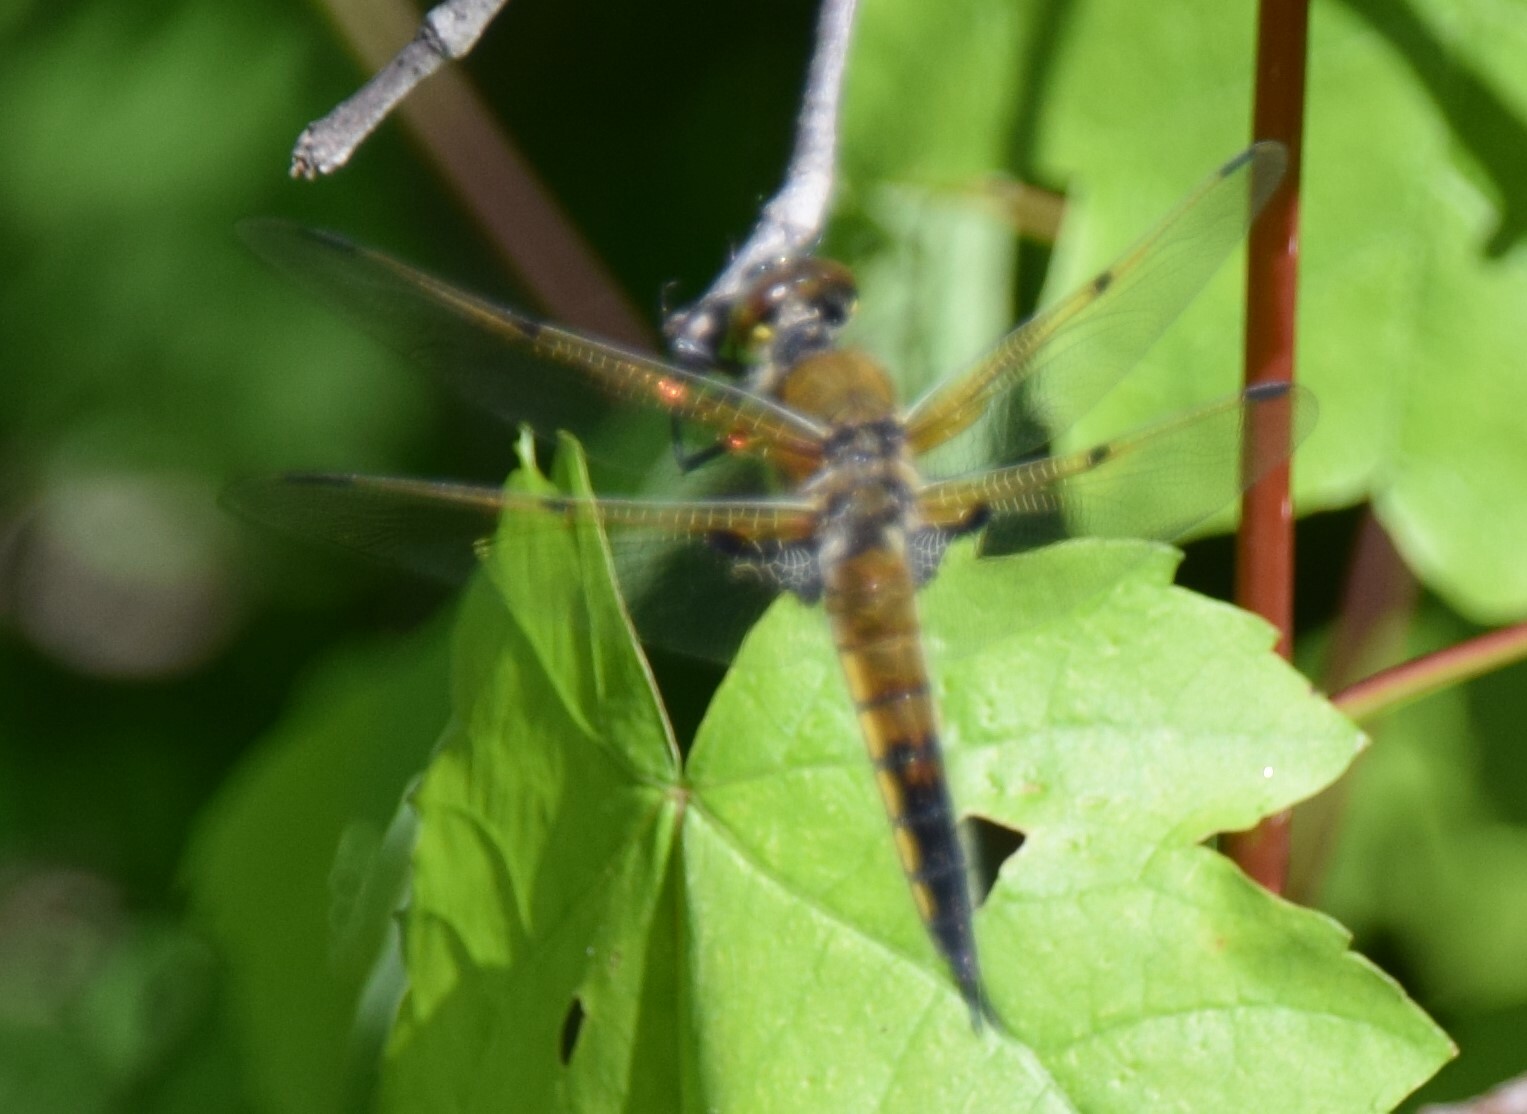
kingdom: Animalia
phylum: Arthropoda
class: Insecta
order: Odonata
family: Libellulidae
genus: Libellula
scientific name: Libellula quadrimaculata
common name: Four-spotted chaser
